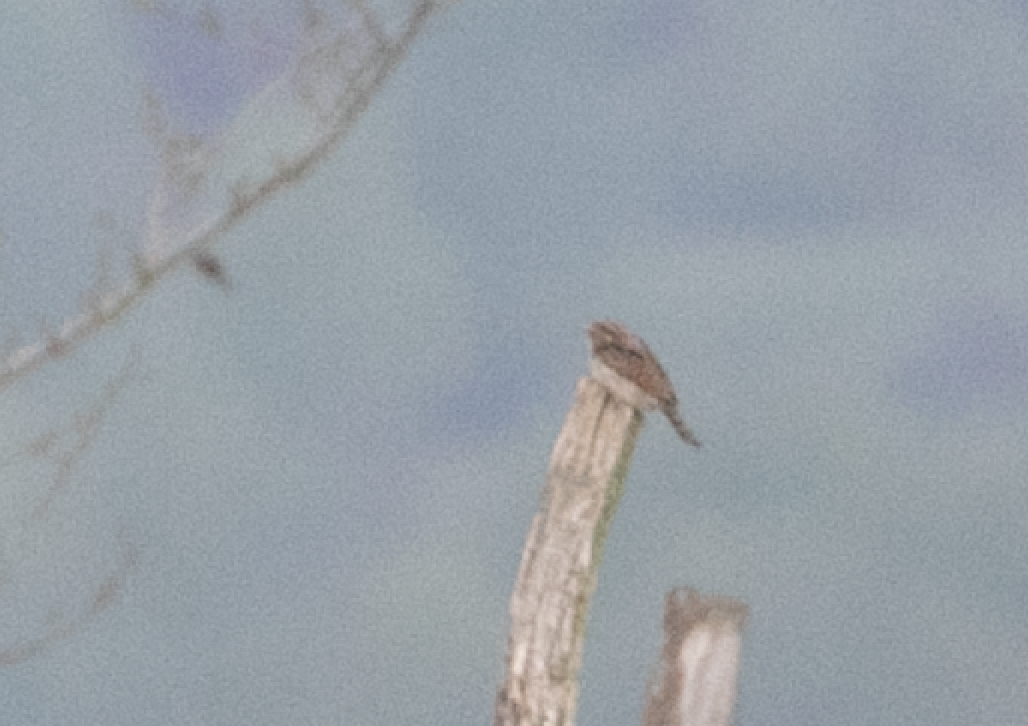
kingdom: Animalia
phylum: Chordata
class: Aves
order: Piciformes
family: Picidae
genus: Jynx
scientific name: Jynx torquilla
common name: Eurasian wryneck
